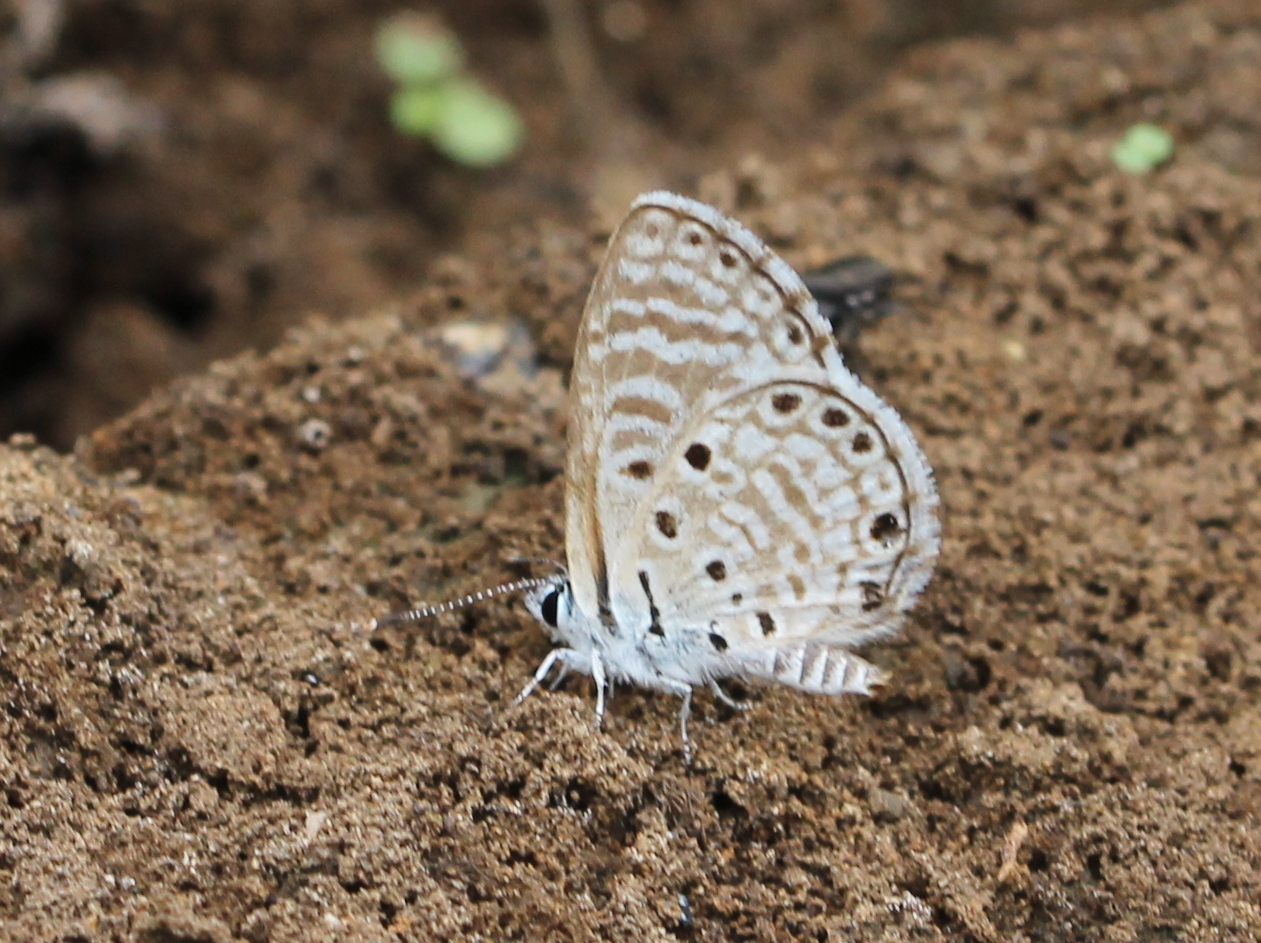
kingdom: Animalia
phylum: Arthropoda
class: Insecta
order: Lepidoptera
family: Lycaenidae
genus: Azanus
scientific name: Azanus jesous
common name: African babul blue
